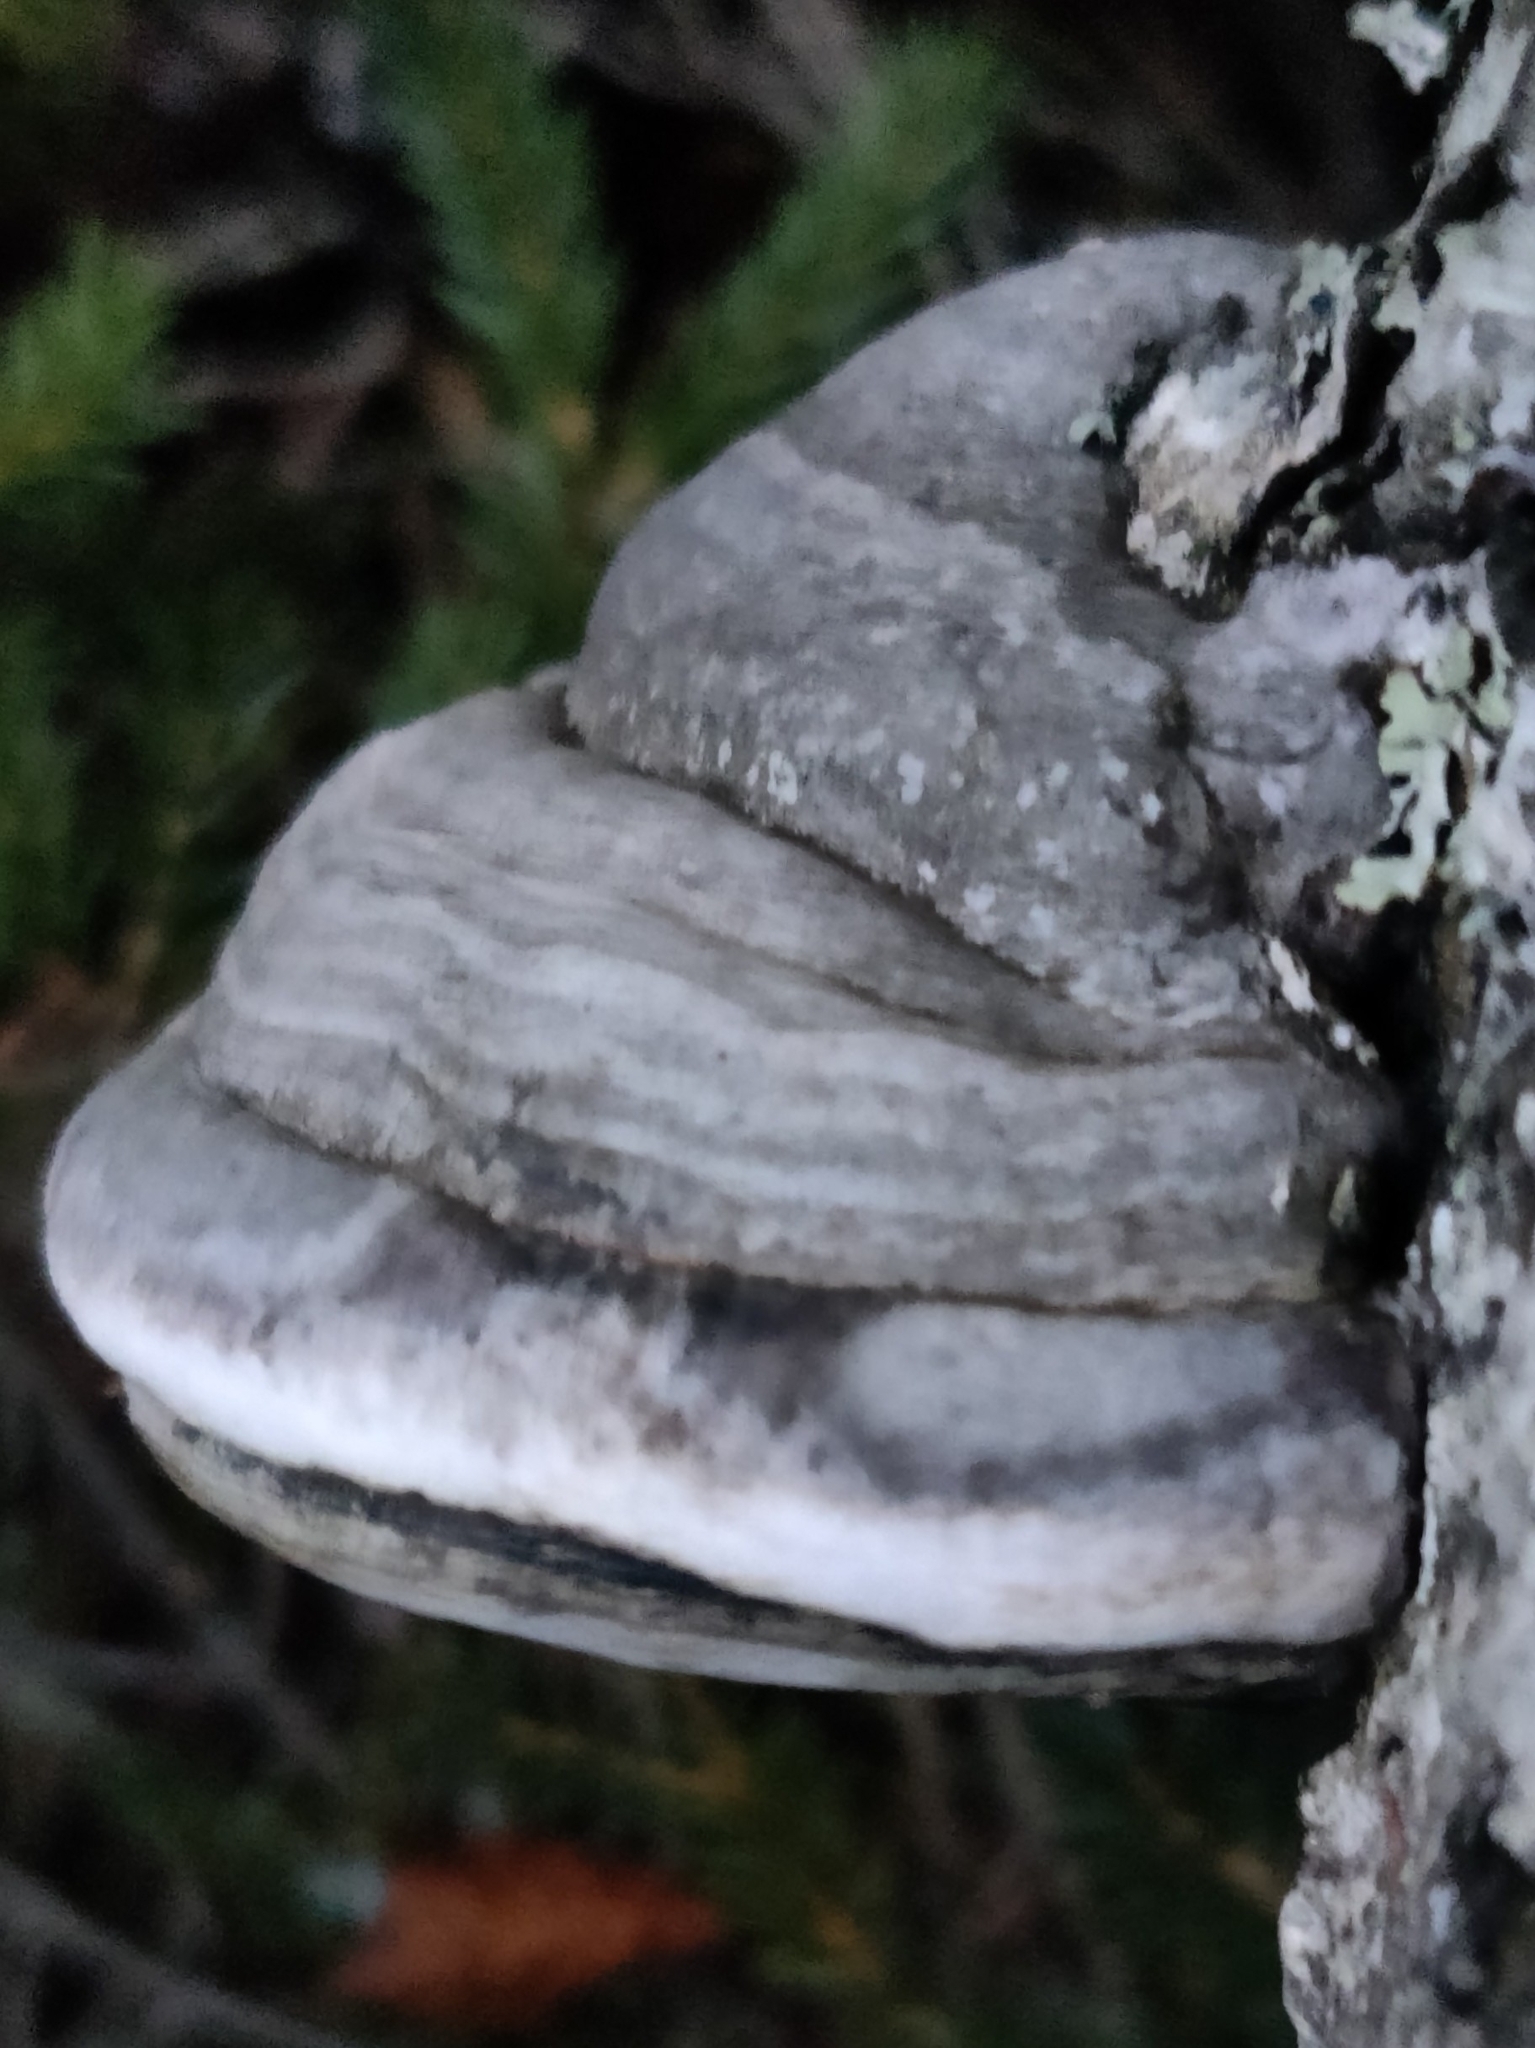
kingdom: Fungi
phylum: Basidiomycota
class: Agaricomycetes
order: Polyporales
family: Polyporaceae
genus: Fomes
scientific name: Fomes fomentarius
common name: Hoof fungus
